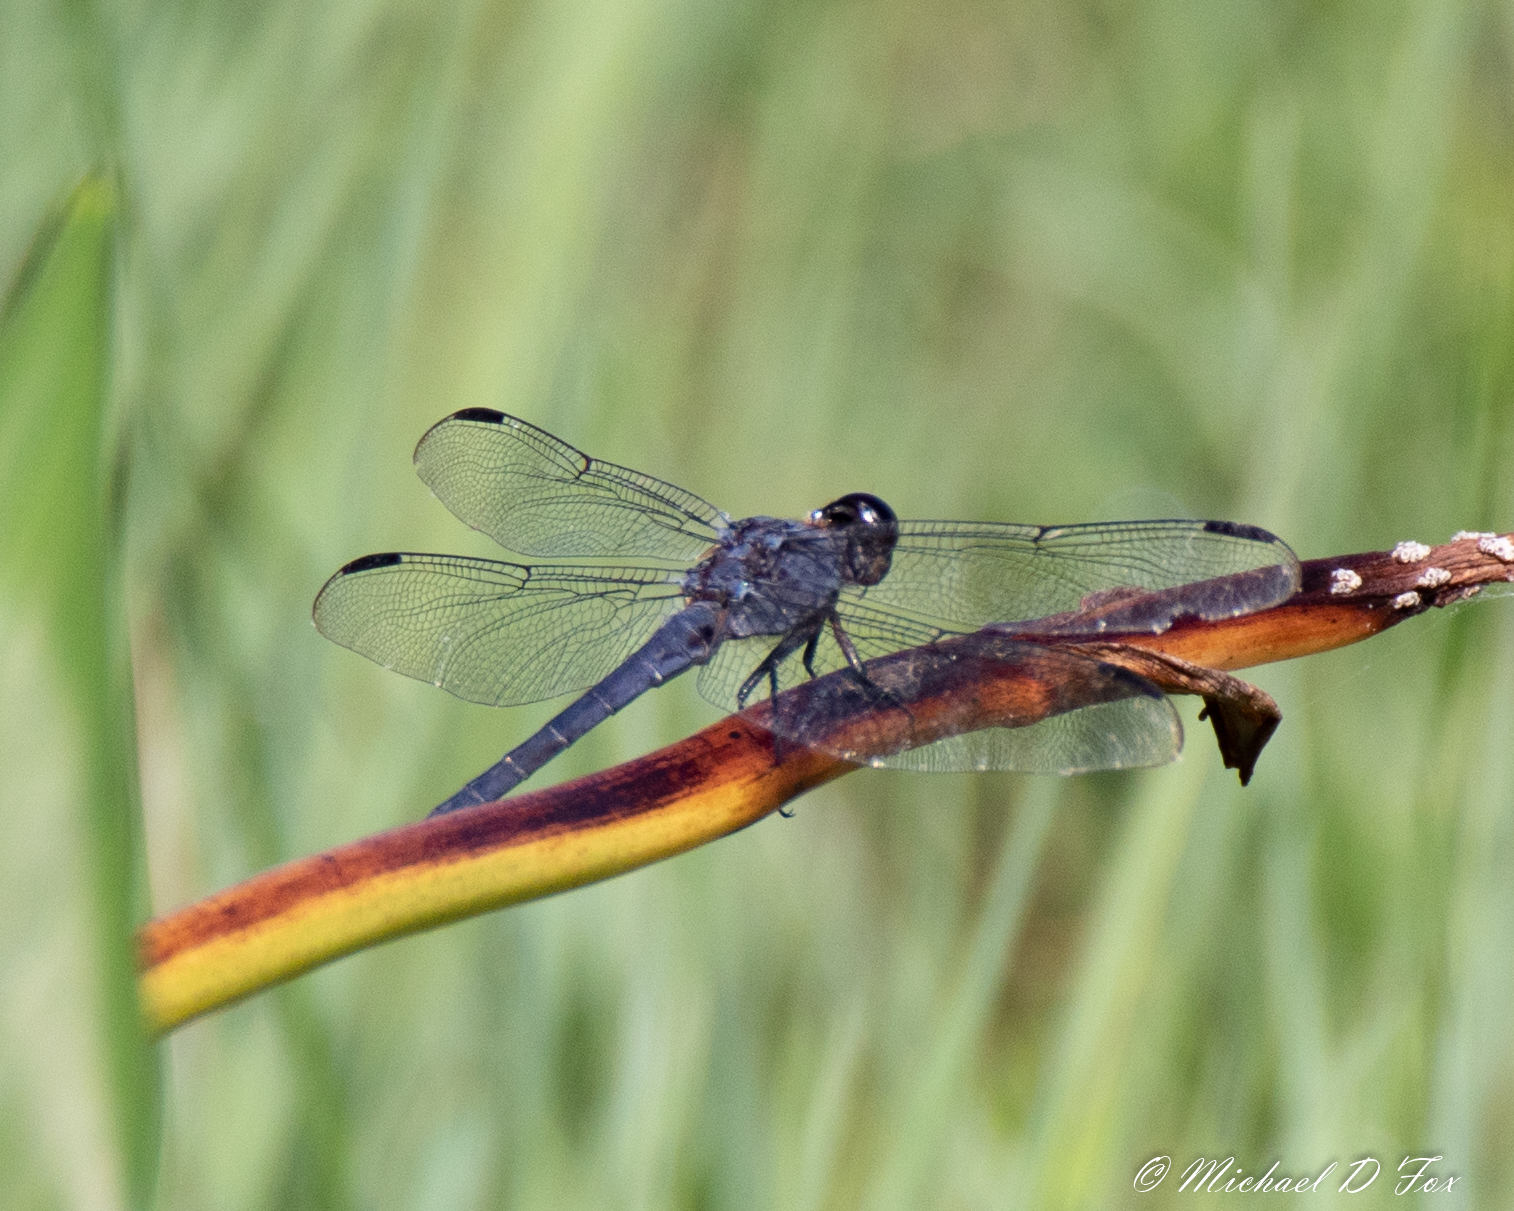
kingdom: Animalia
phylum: Arthropoda
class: Insecta
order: Odonata
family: Libellulidae
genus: Libellula
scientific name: Libellula incesta
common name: Slaty skimmer
